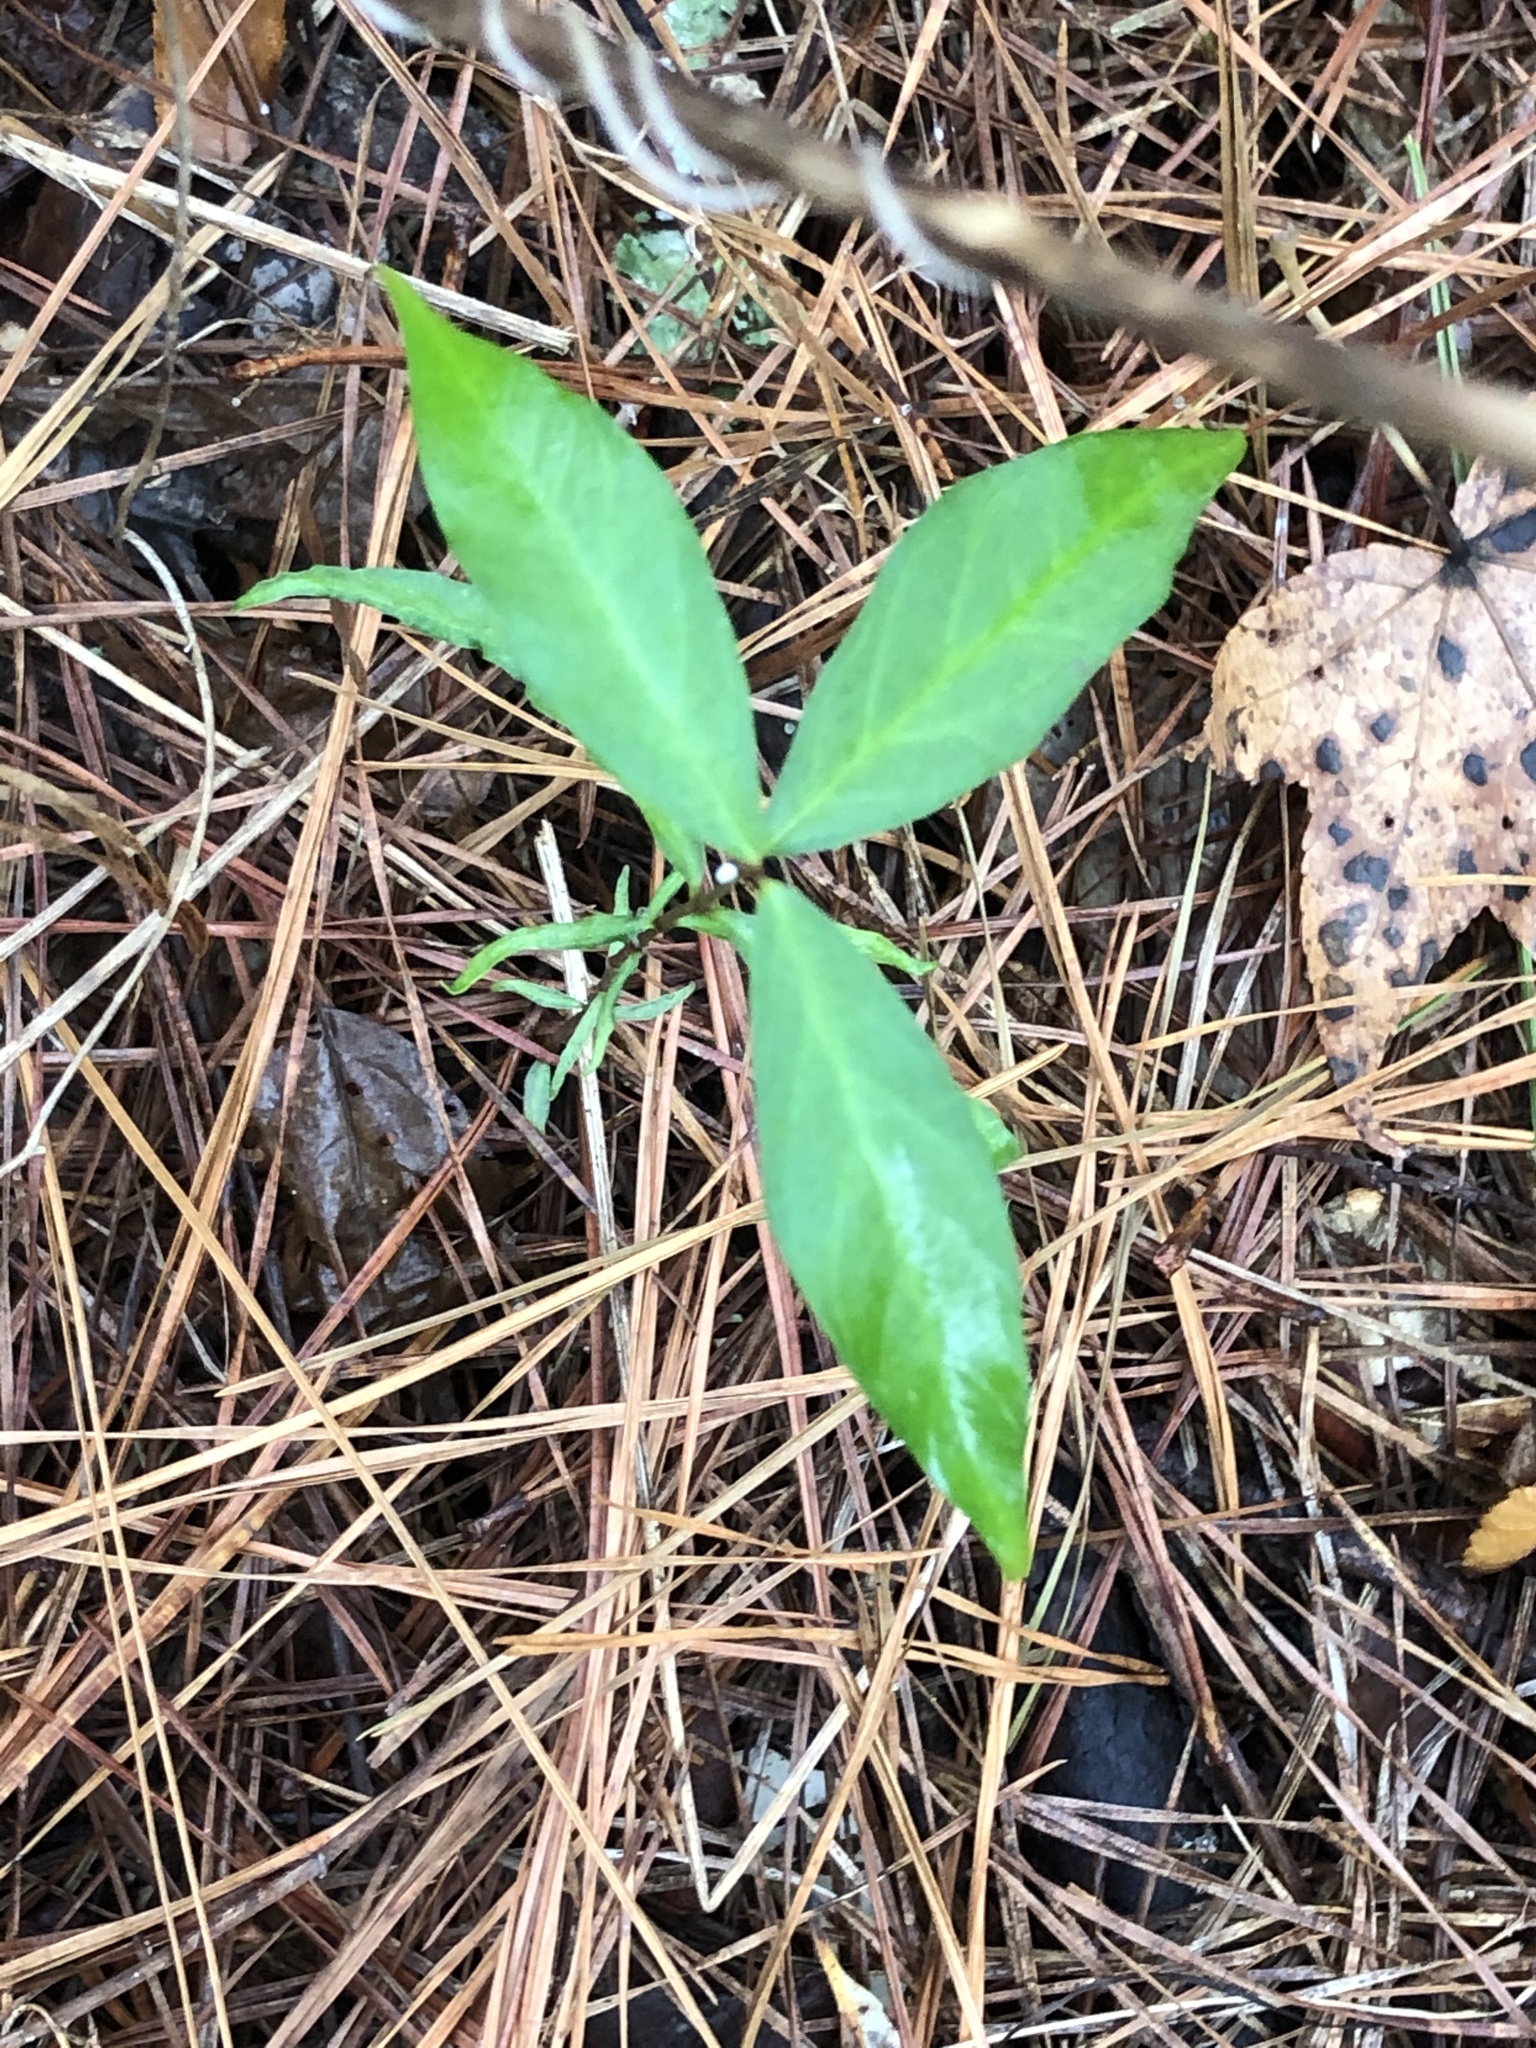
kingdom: Plantae
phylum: Tracheophyta
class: Magnoliopsida
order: Gentianales
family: Apocynaceae
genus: Thyrsanthella
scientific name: Thyrsanthella difformis
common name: Climbing dogbane
